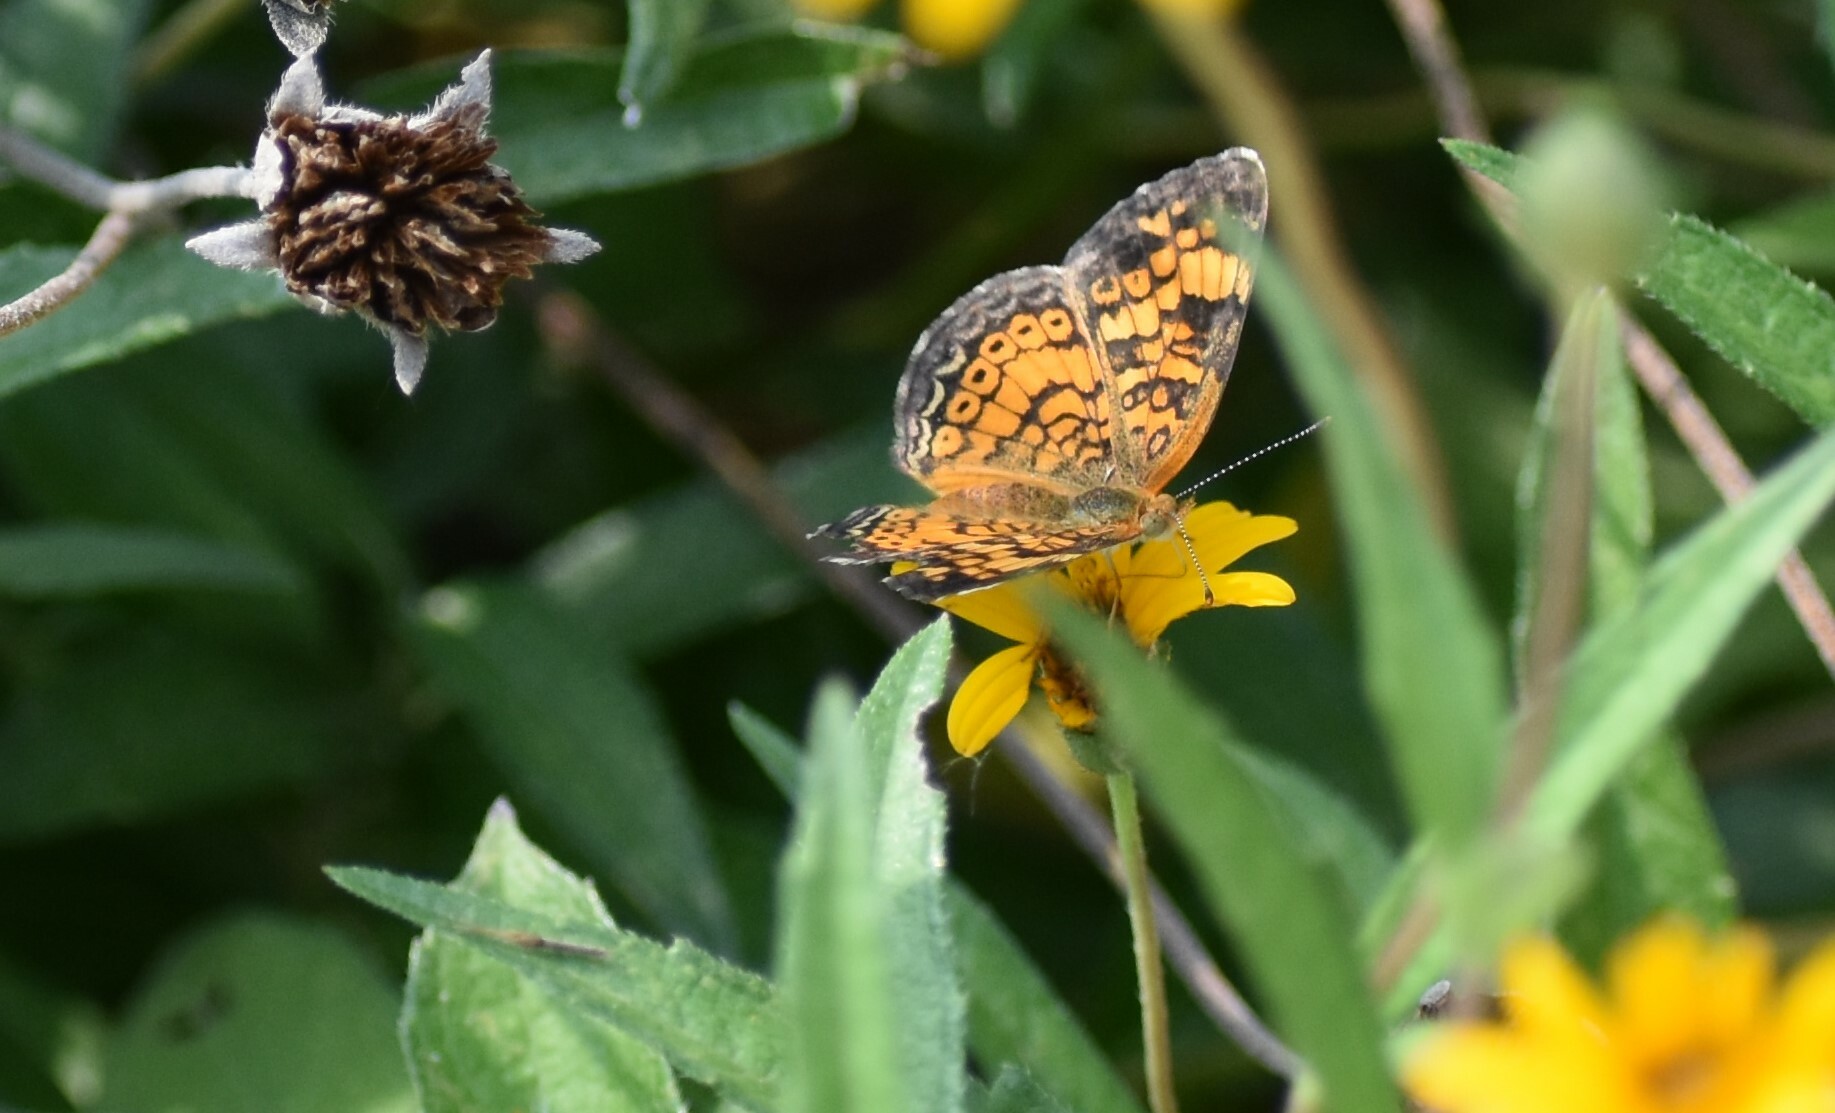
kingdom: Animalia
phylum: Arthropoda
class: Insecta
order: Lepidoptera
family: Nymphalidae
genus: Phyciodes
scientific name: Phyciodes tharos
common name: Pearl crescent
